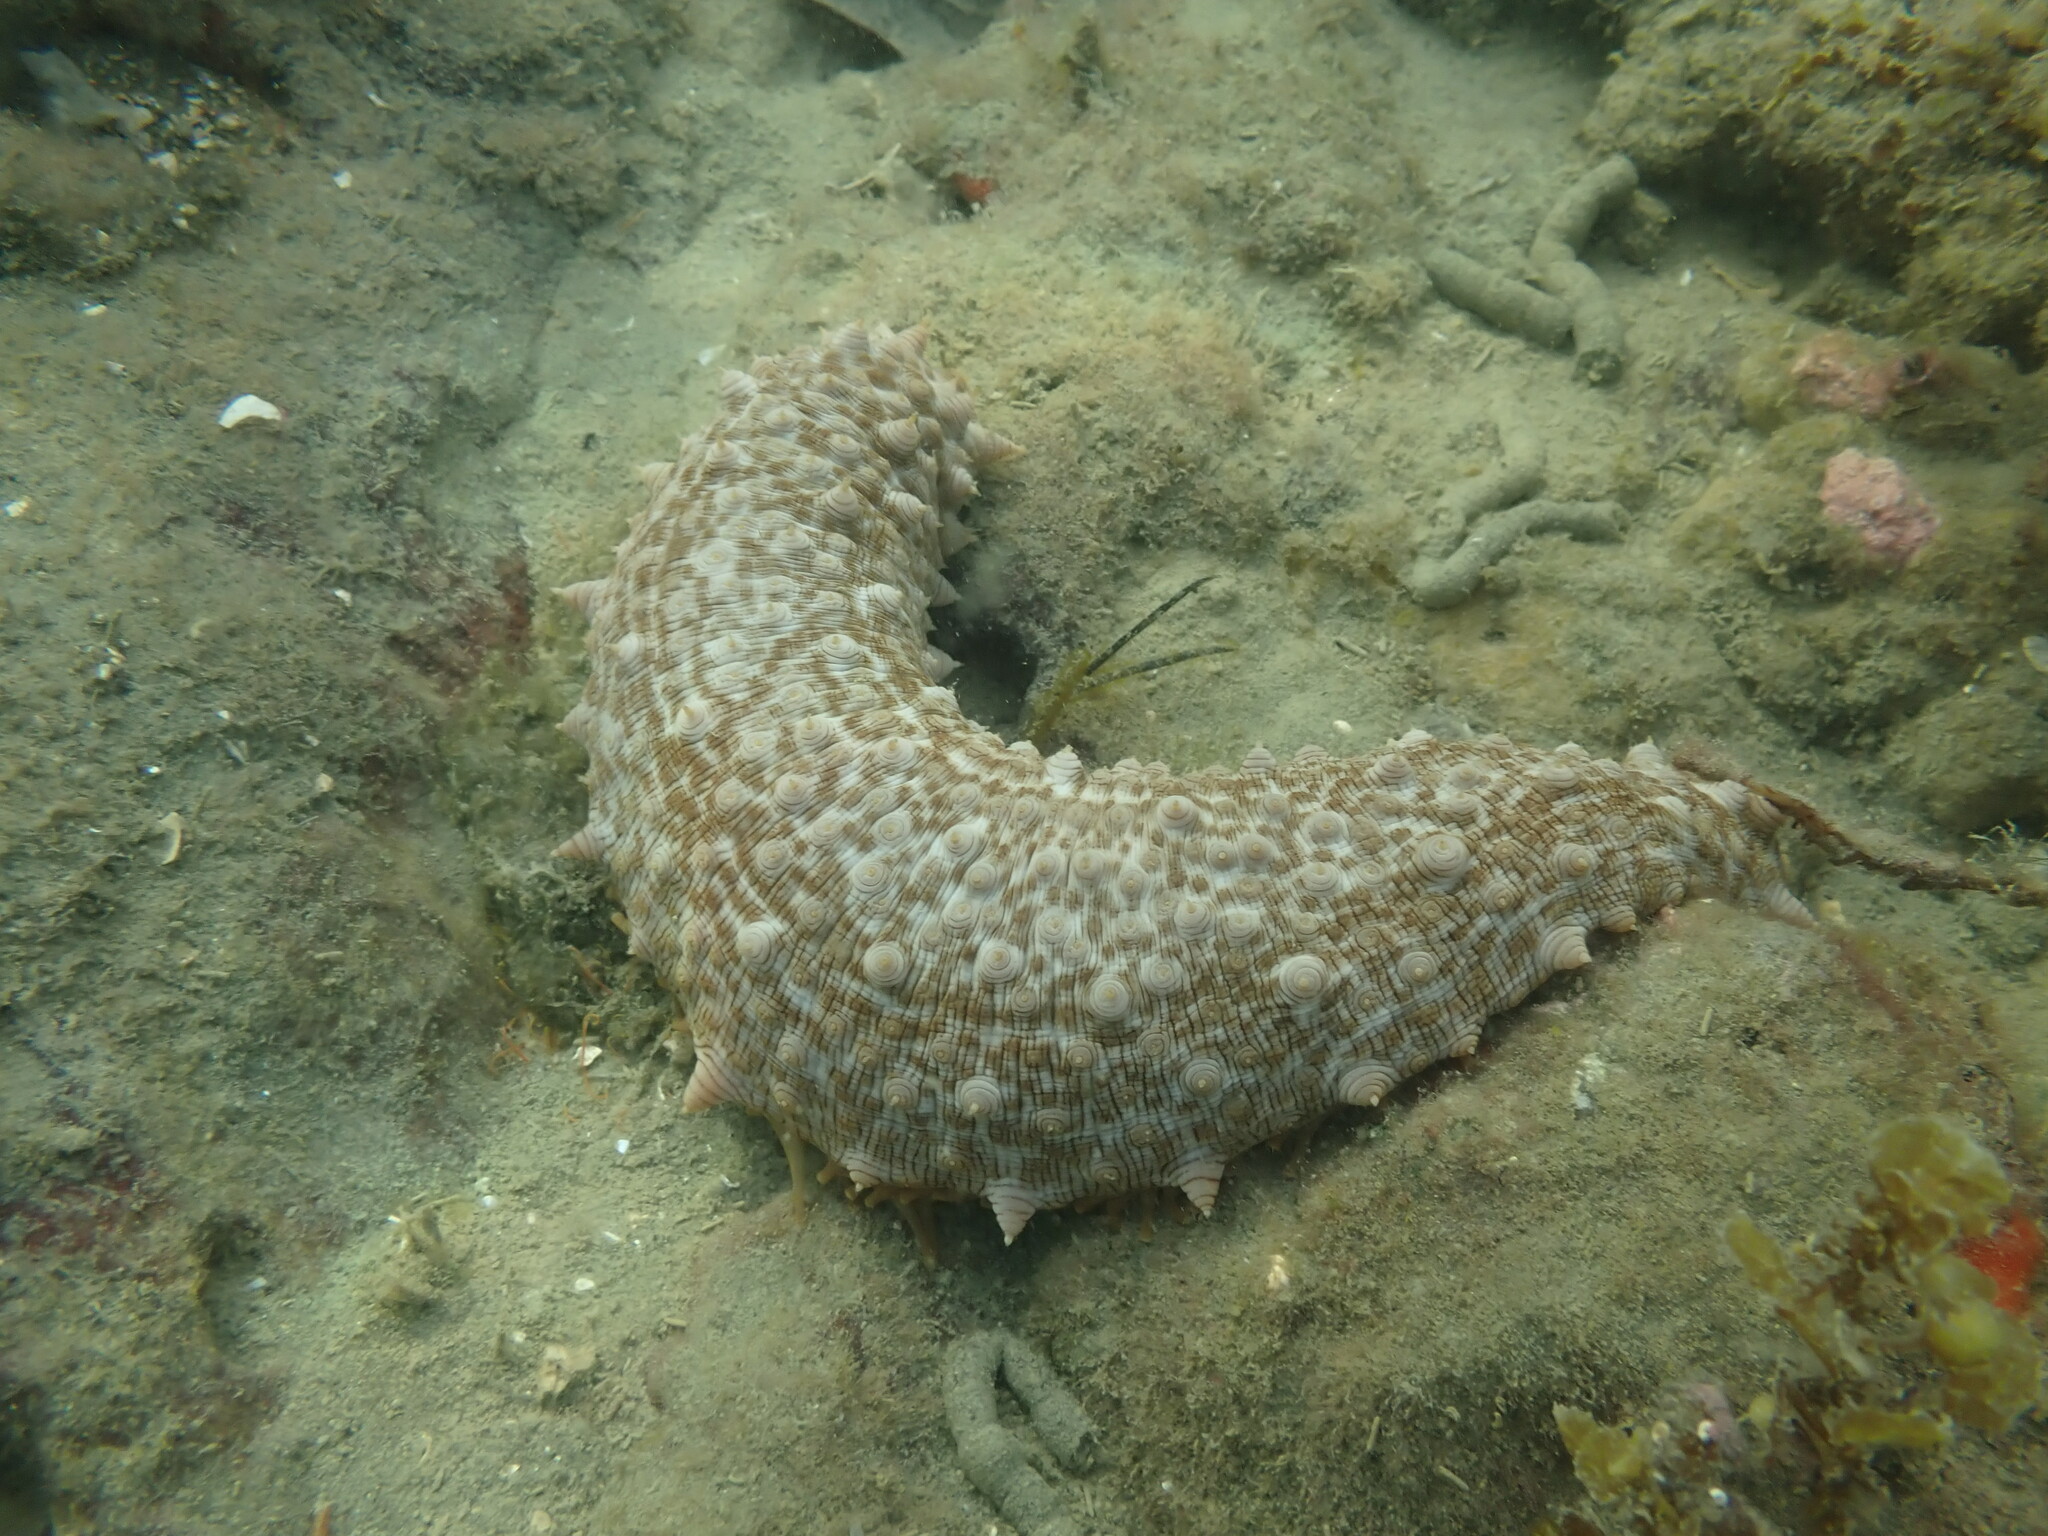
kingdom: Animalia
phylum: Echinodermata
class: Holothuroidea
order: Synallactida
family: Stichopodidae
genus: Australostichopus
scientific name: Australostichopus mollis
